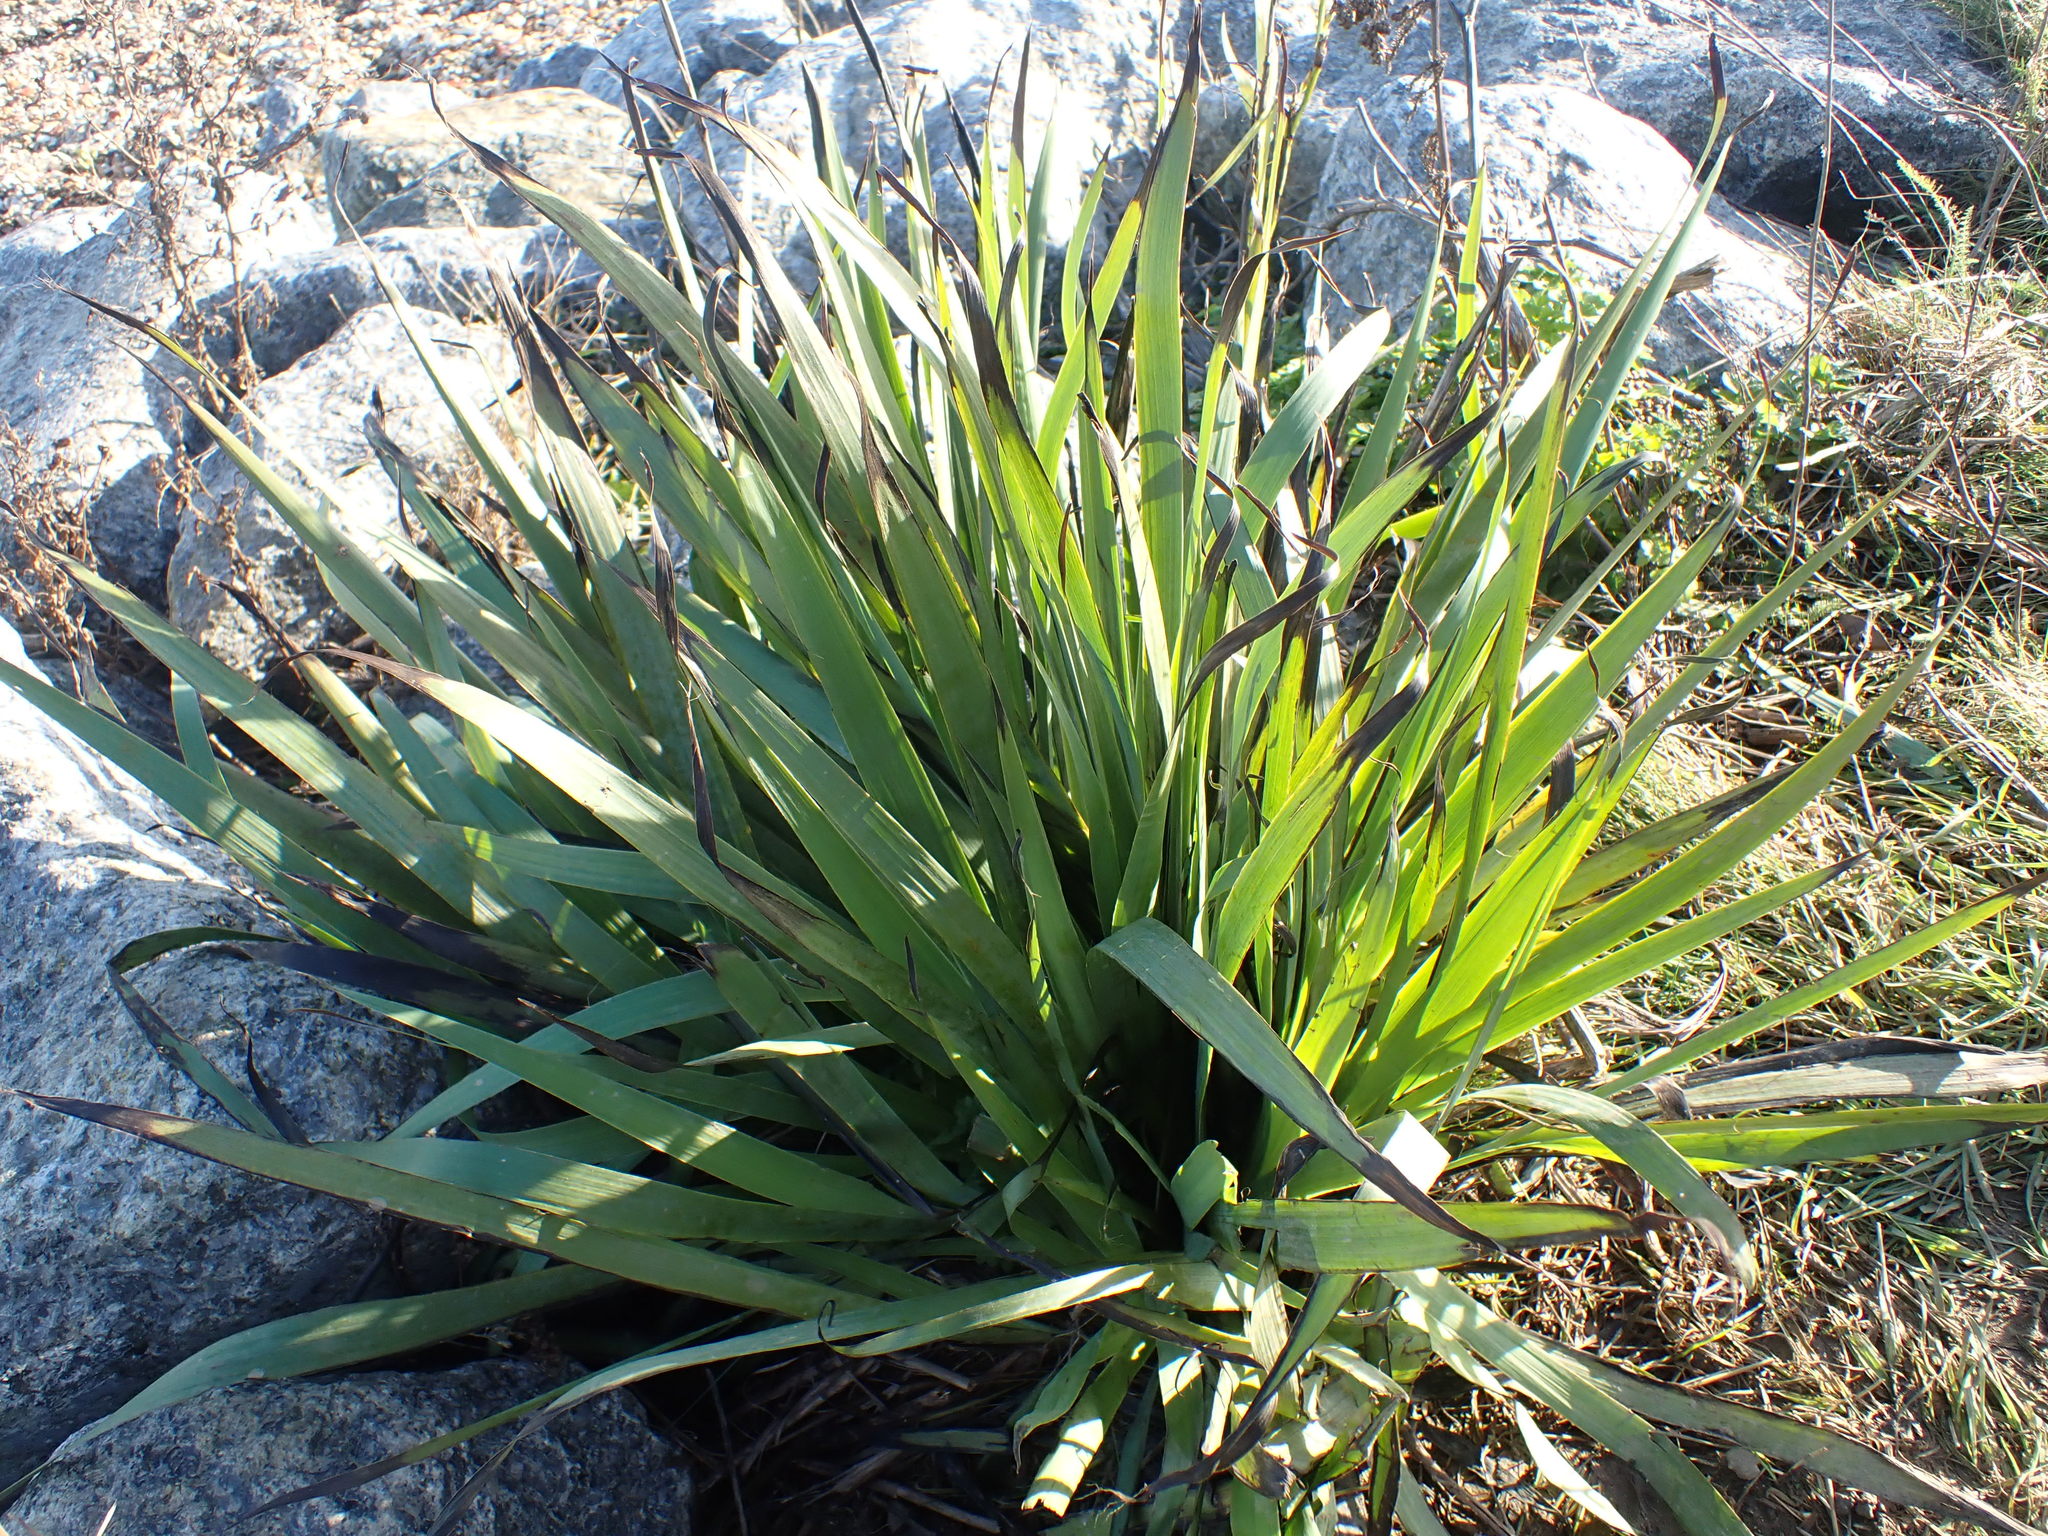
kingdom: Plantae
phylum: Tracheophyta
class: Liliopsida
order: Asparagales
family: Iridaceae
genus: Sisyrinchium
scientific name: Sisyrinchium striatum
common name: Pale yellow-eyed-grass
